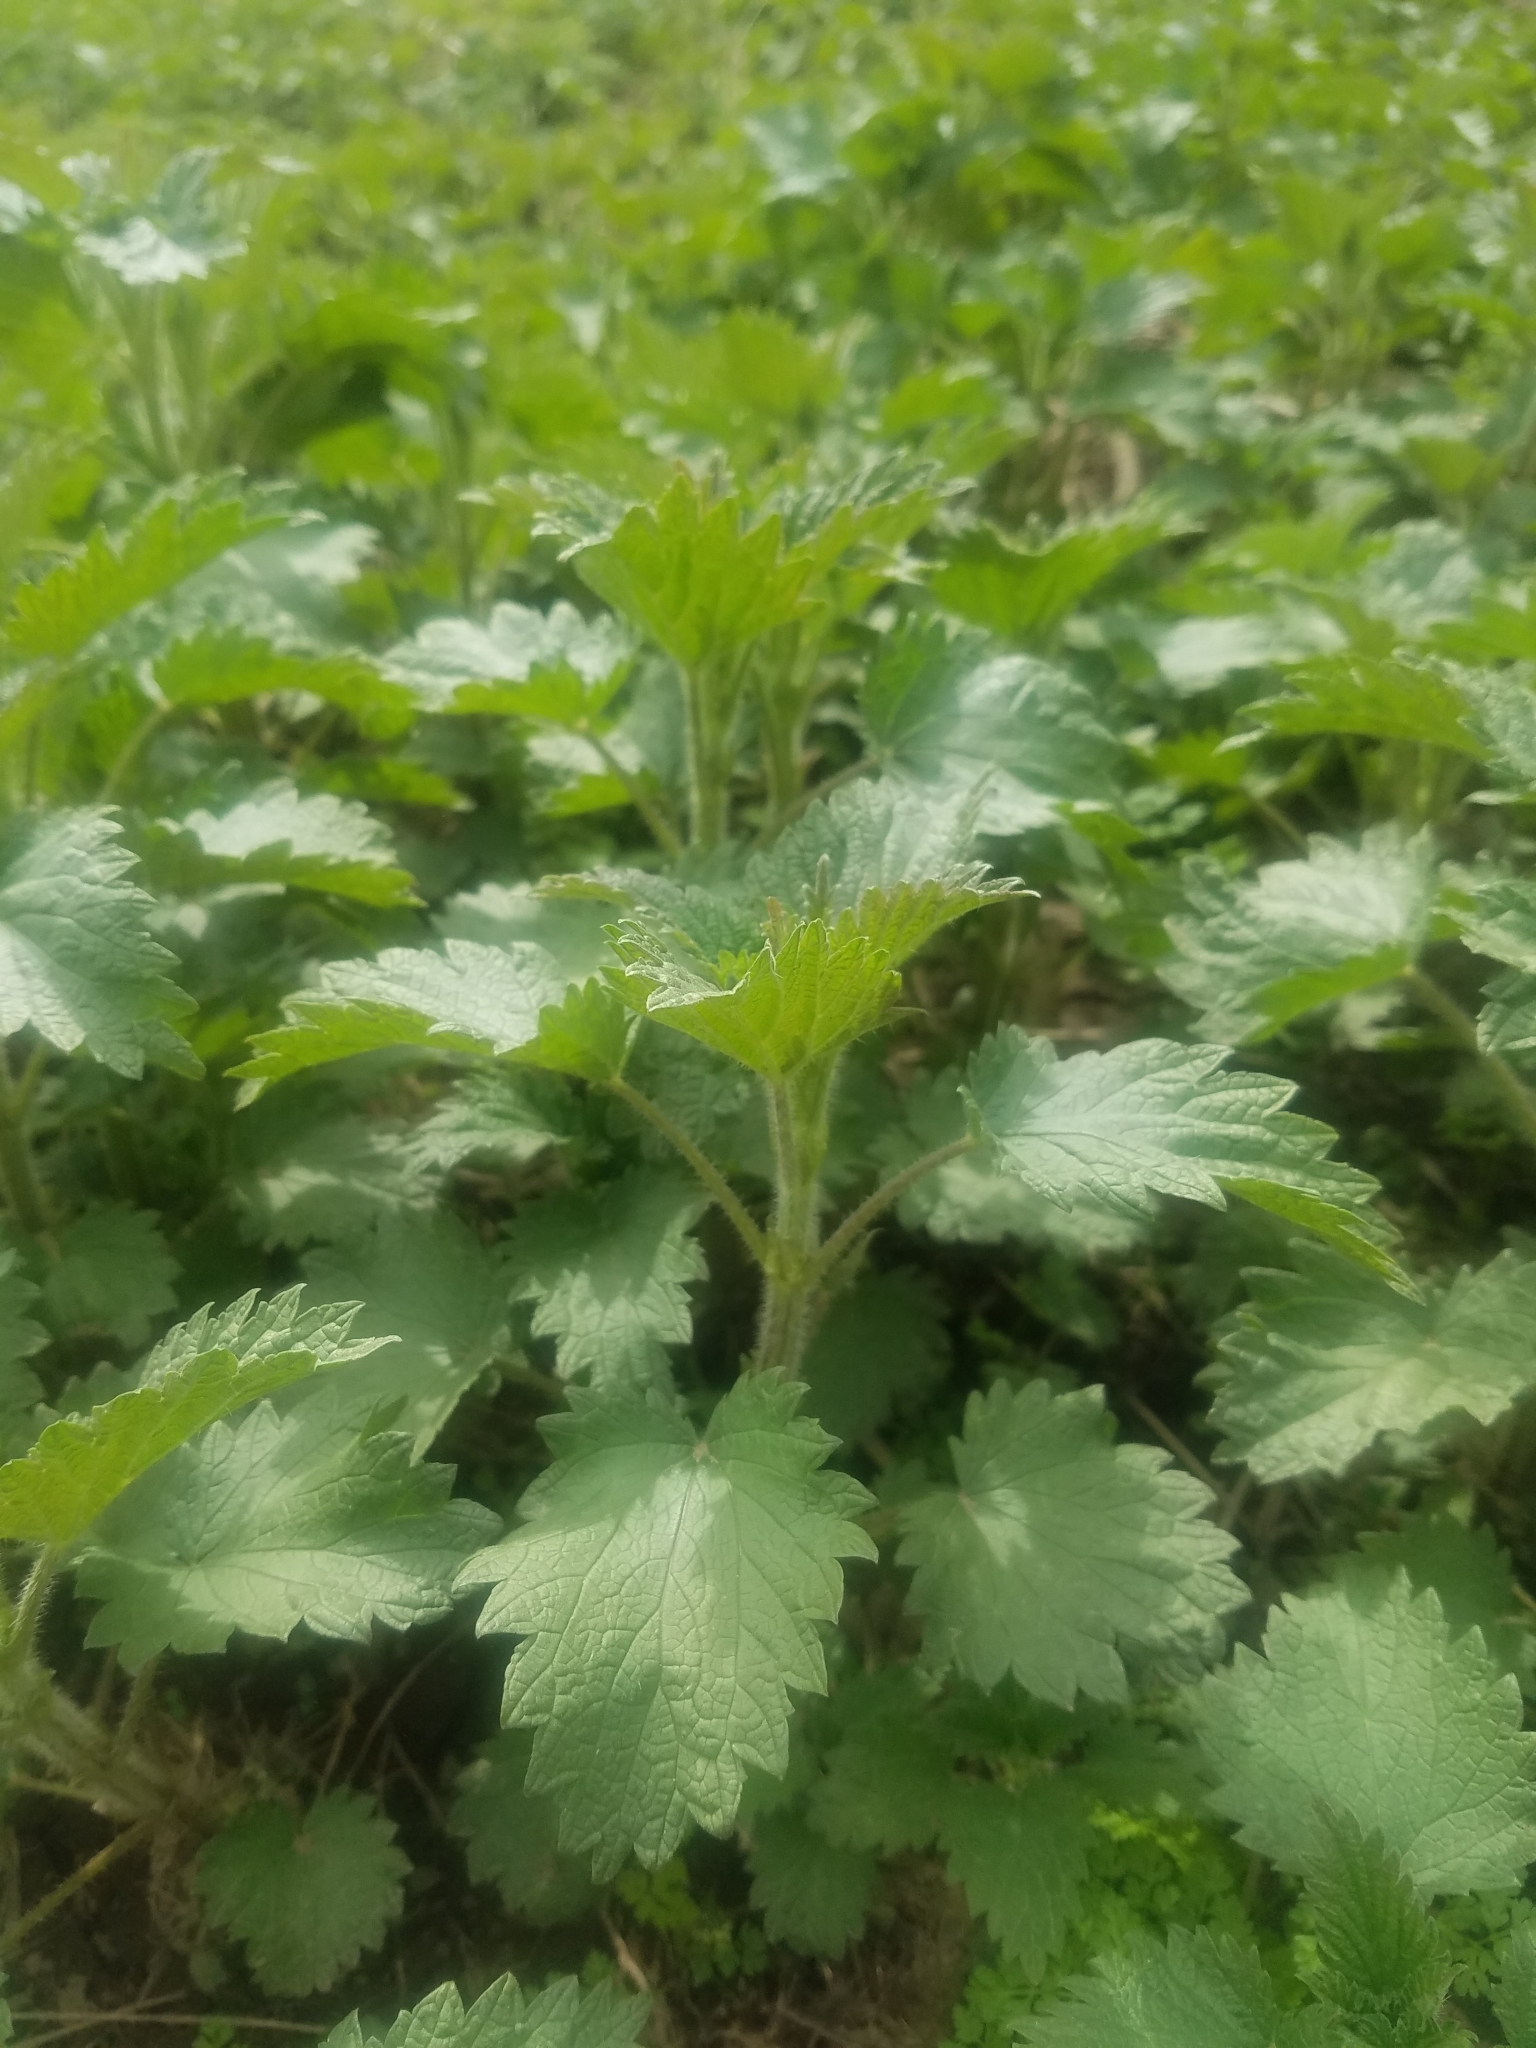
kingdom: Plantae
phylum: Tracheophyta
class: Magnoliopsida
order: Rosales
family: Urticaceae
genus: Urtica
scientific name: Urtica gracilis
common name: Slender stinging nettle
